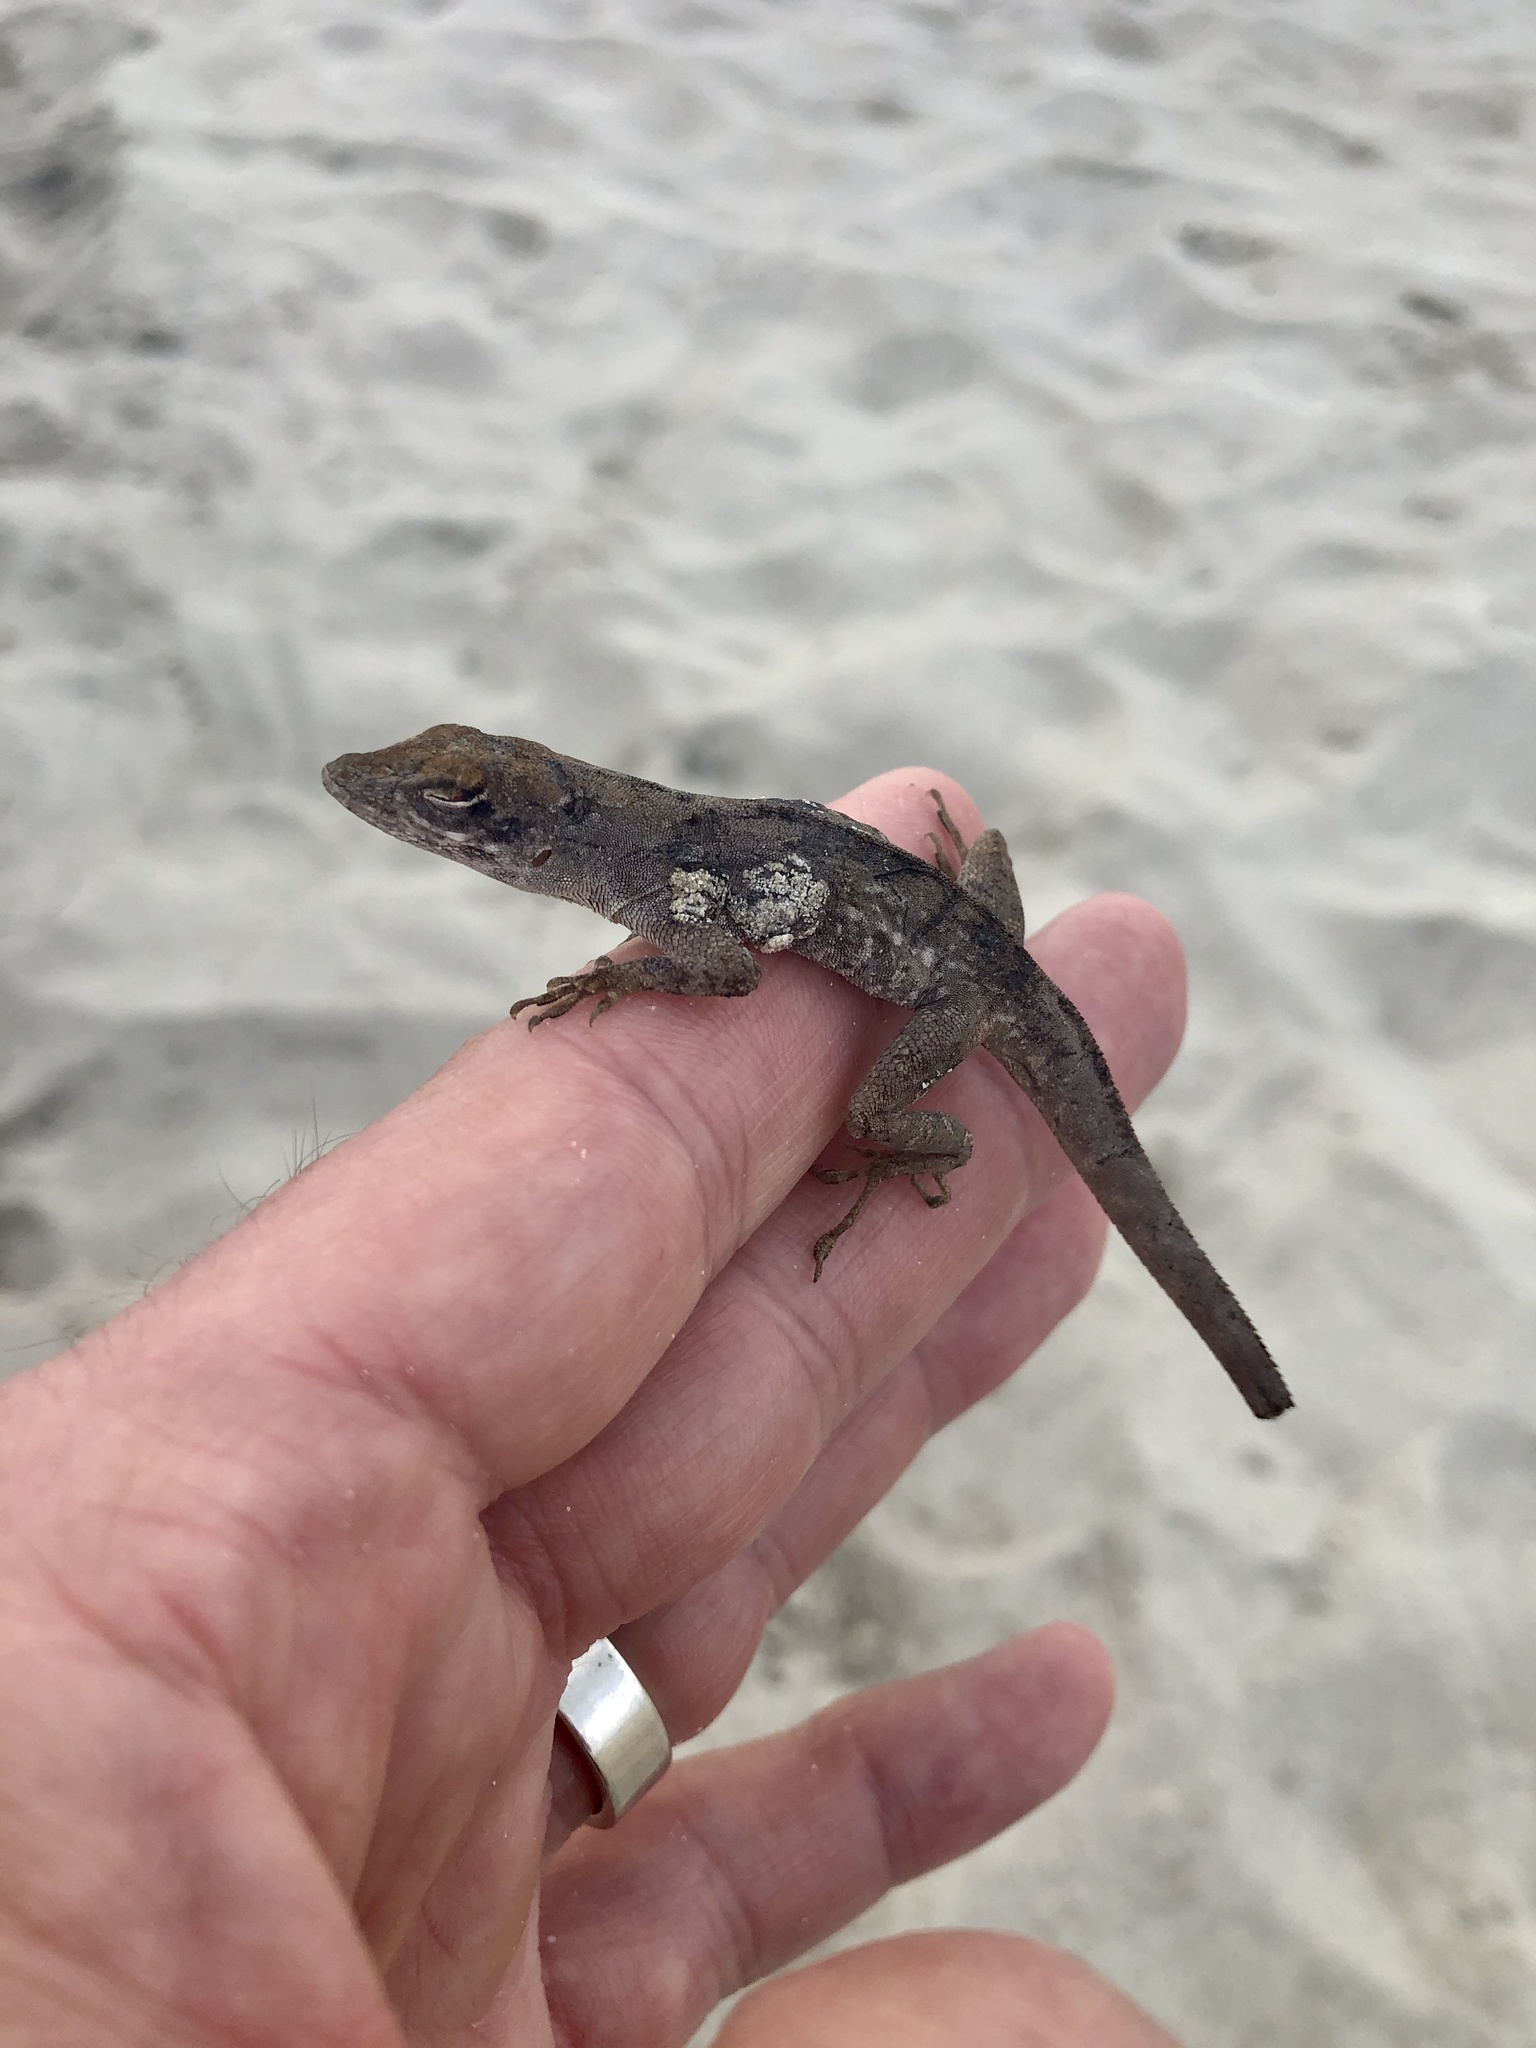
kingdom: Animalia
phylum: Chordata
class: Squamata
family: Dactyloidae
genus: Anolis
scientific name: Anolis sagrei
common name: Brown anole
